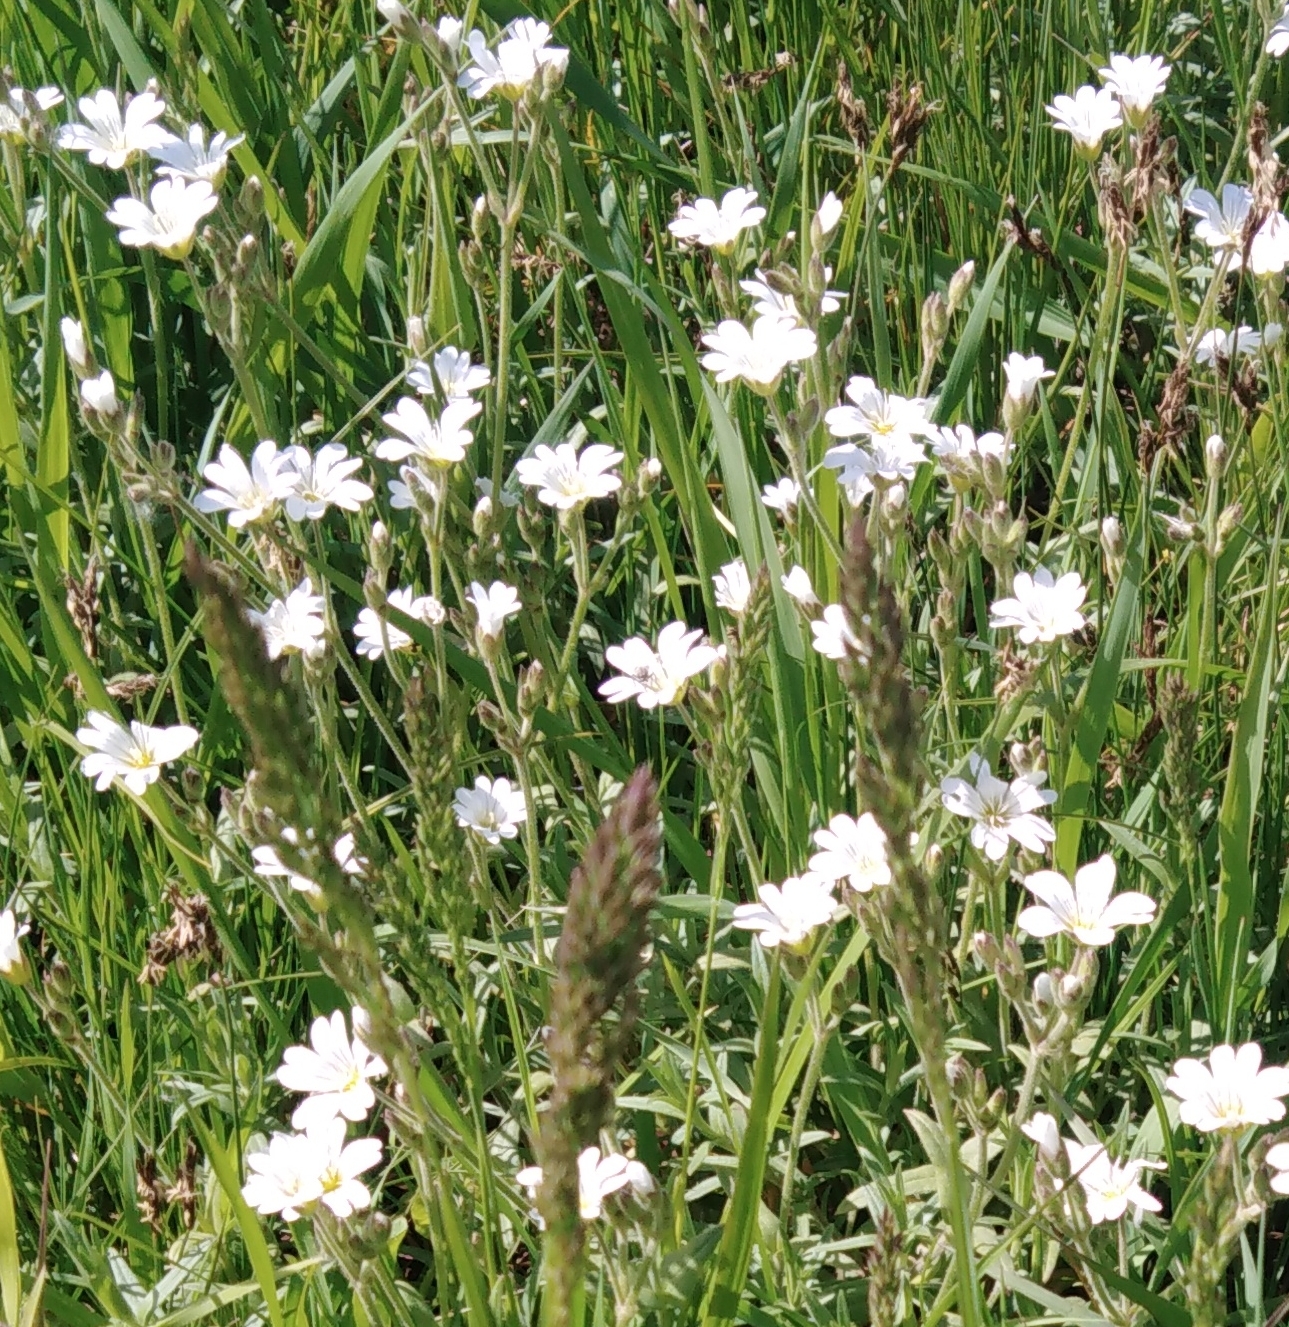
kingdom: Plantae
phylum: Tracheophyta
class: Magnoliopsida
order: Caryophyllales
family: Caryophyllaceae
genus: Cerastium
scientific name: Cerastium arvense
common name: Field mouse-ear
